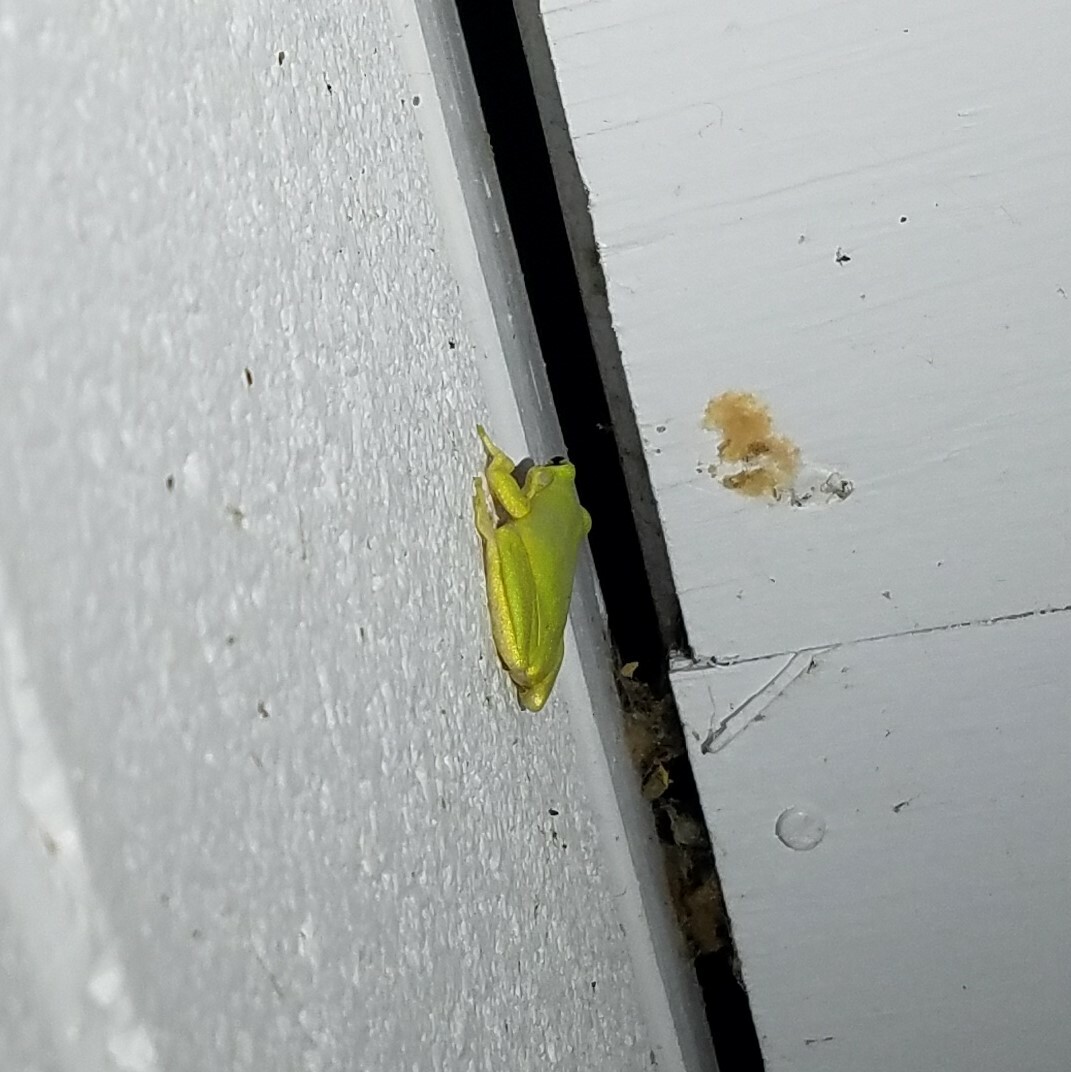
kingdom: Animalia
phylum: Chordata
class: Amphibia
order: Anura
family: Hylidae
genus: Dryophytes
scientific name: Dryophytes squirellus
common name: Squirrel treefrog
